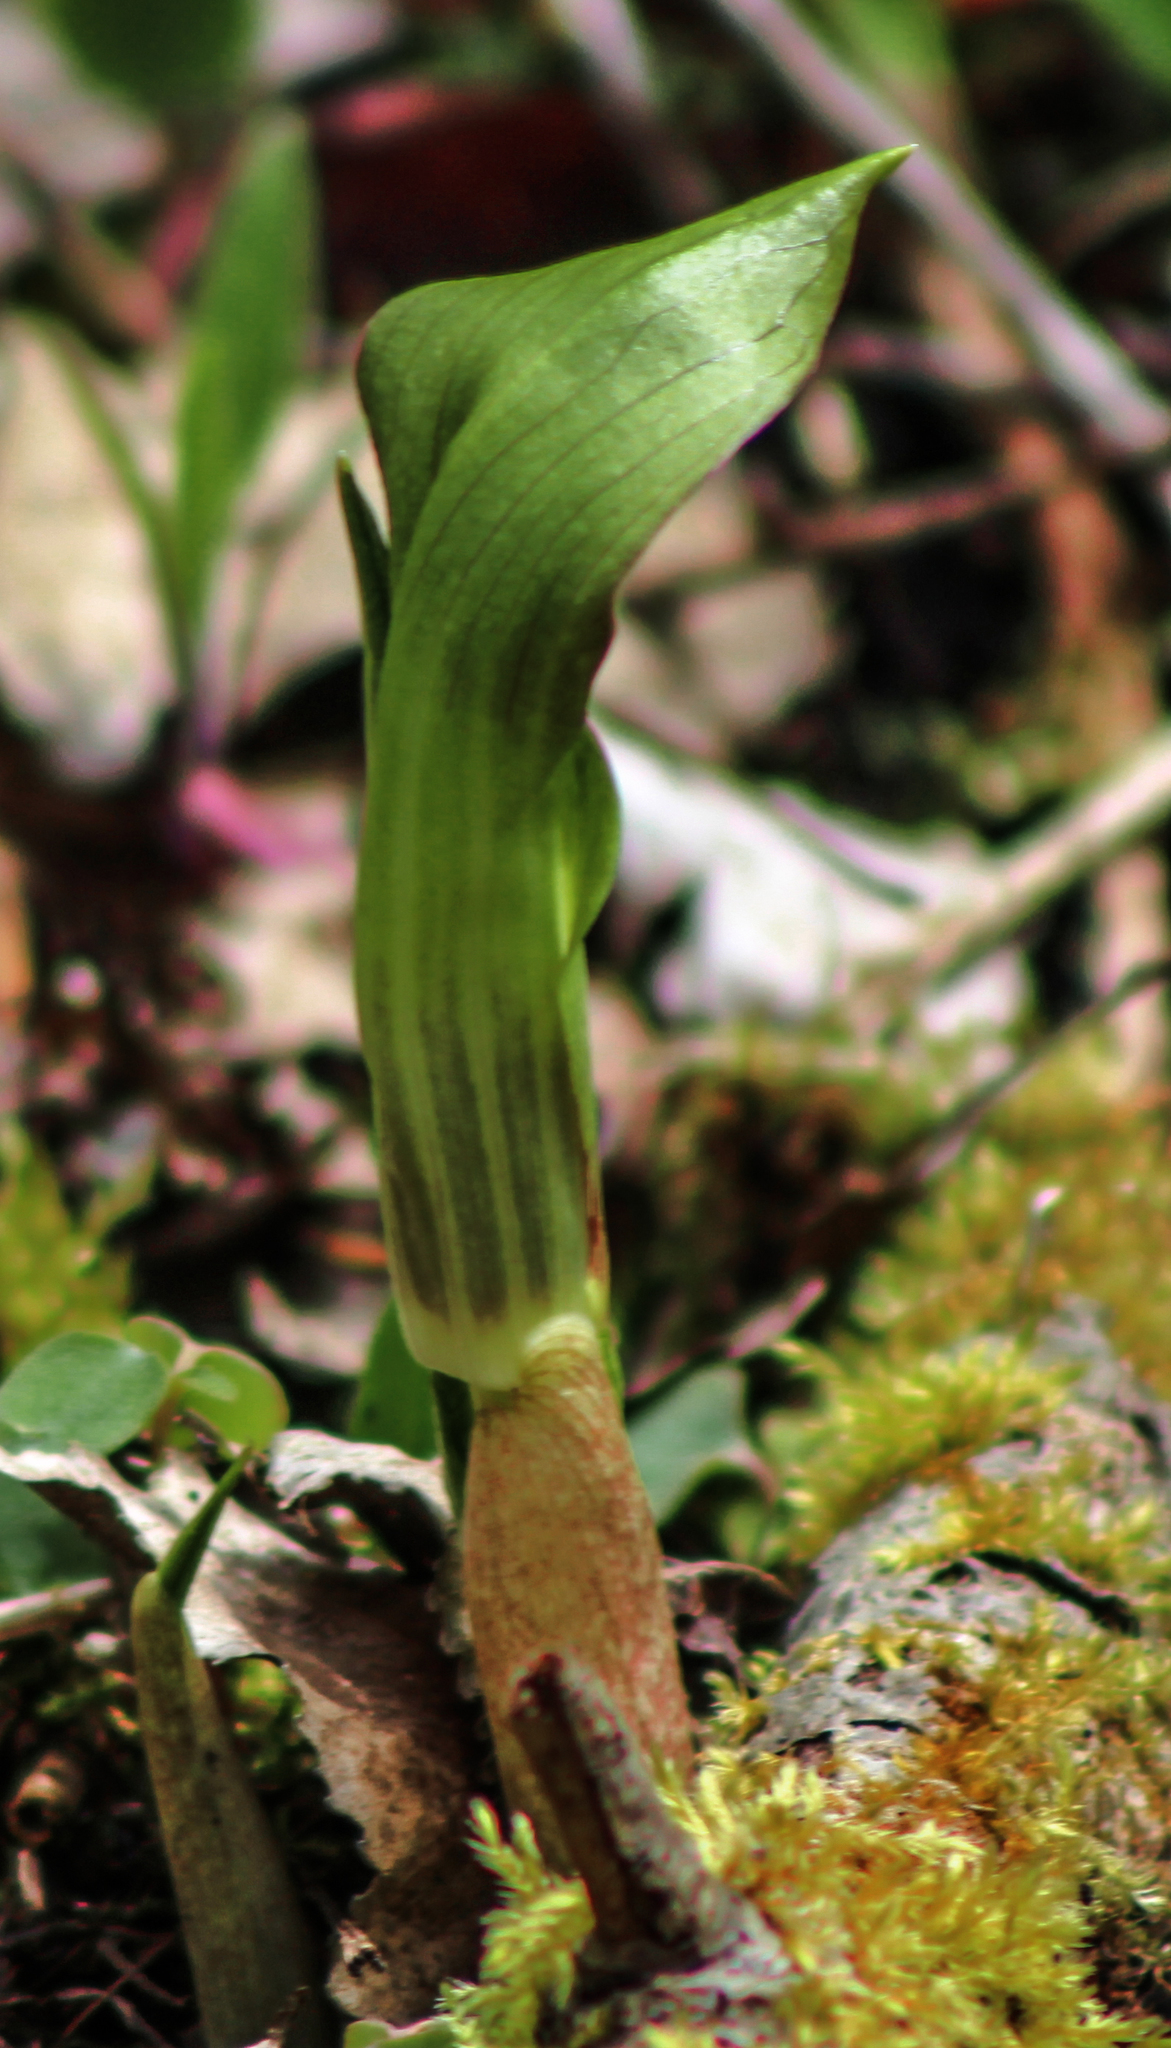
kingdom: Plantae
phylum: Tracheophyta
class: Liliopsida
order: Alismatales
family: Araceae
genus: Arisaema
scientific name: Arisaema triphyllum
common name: Jack-in-the-pulpit
